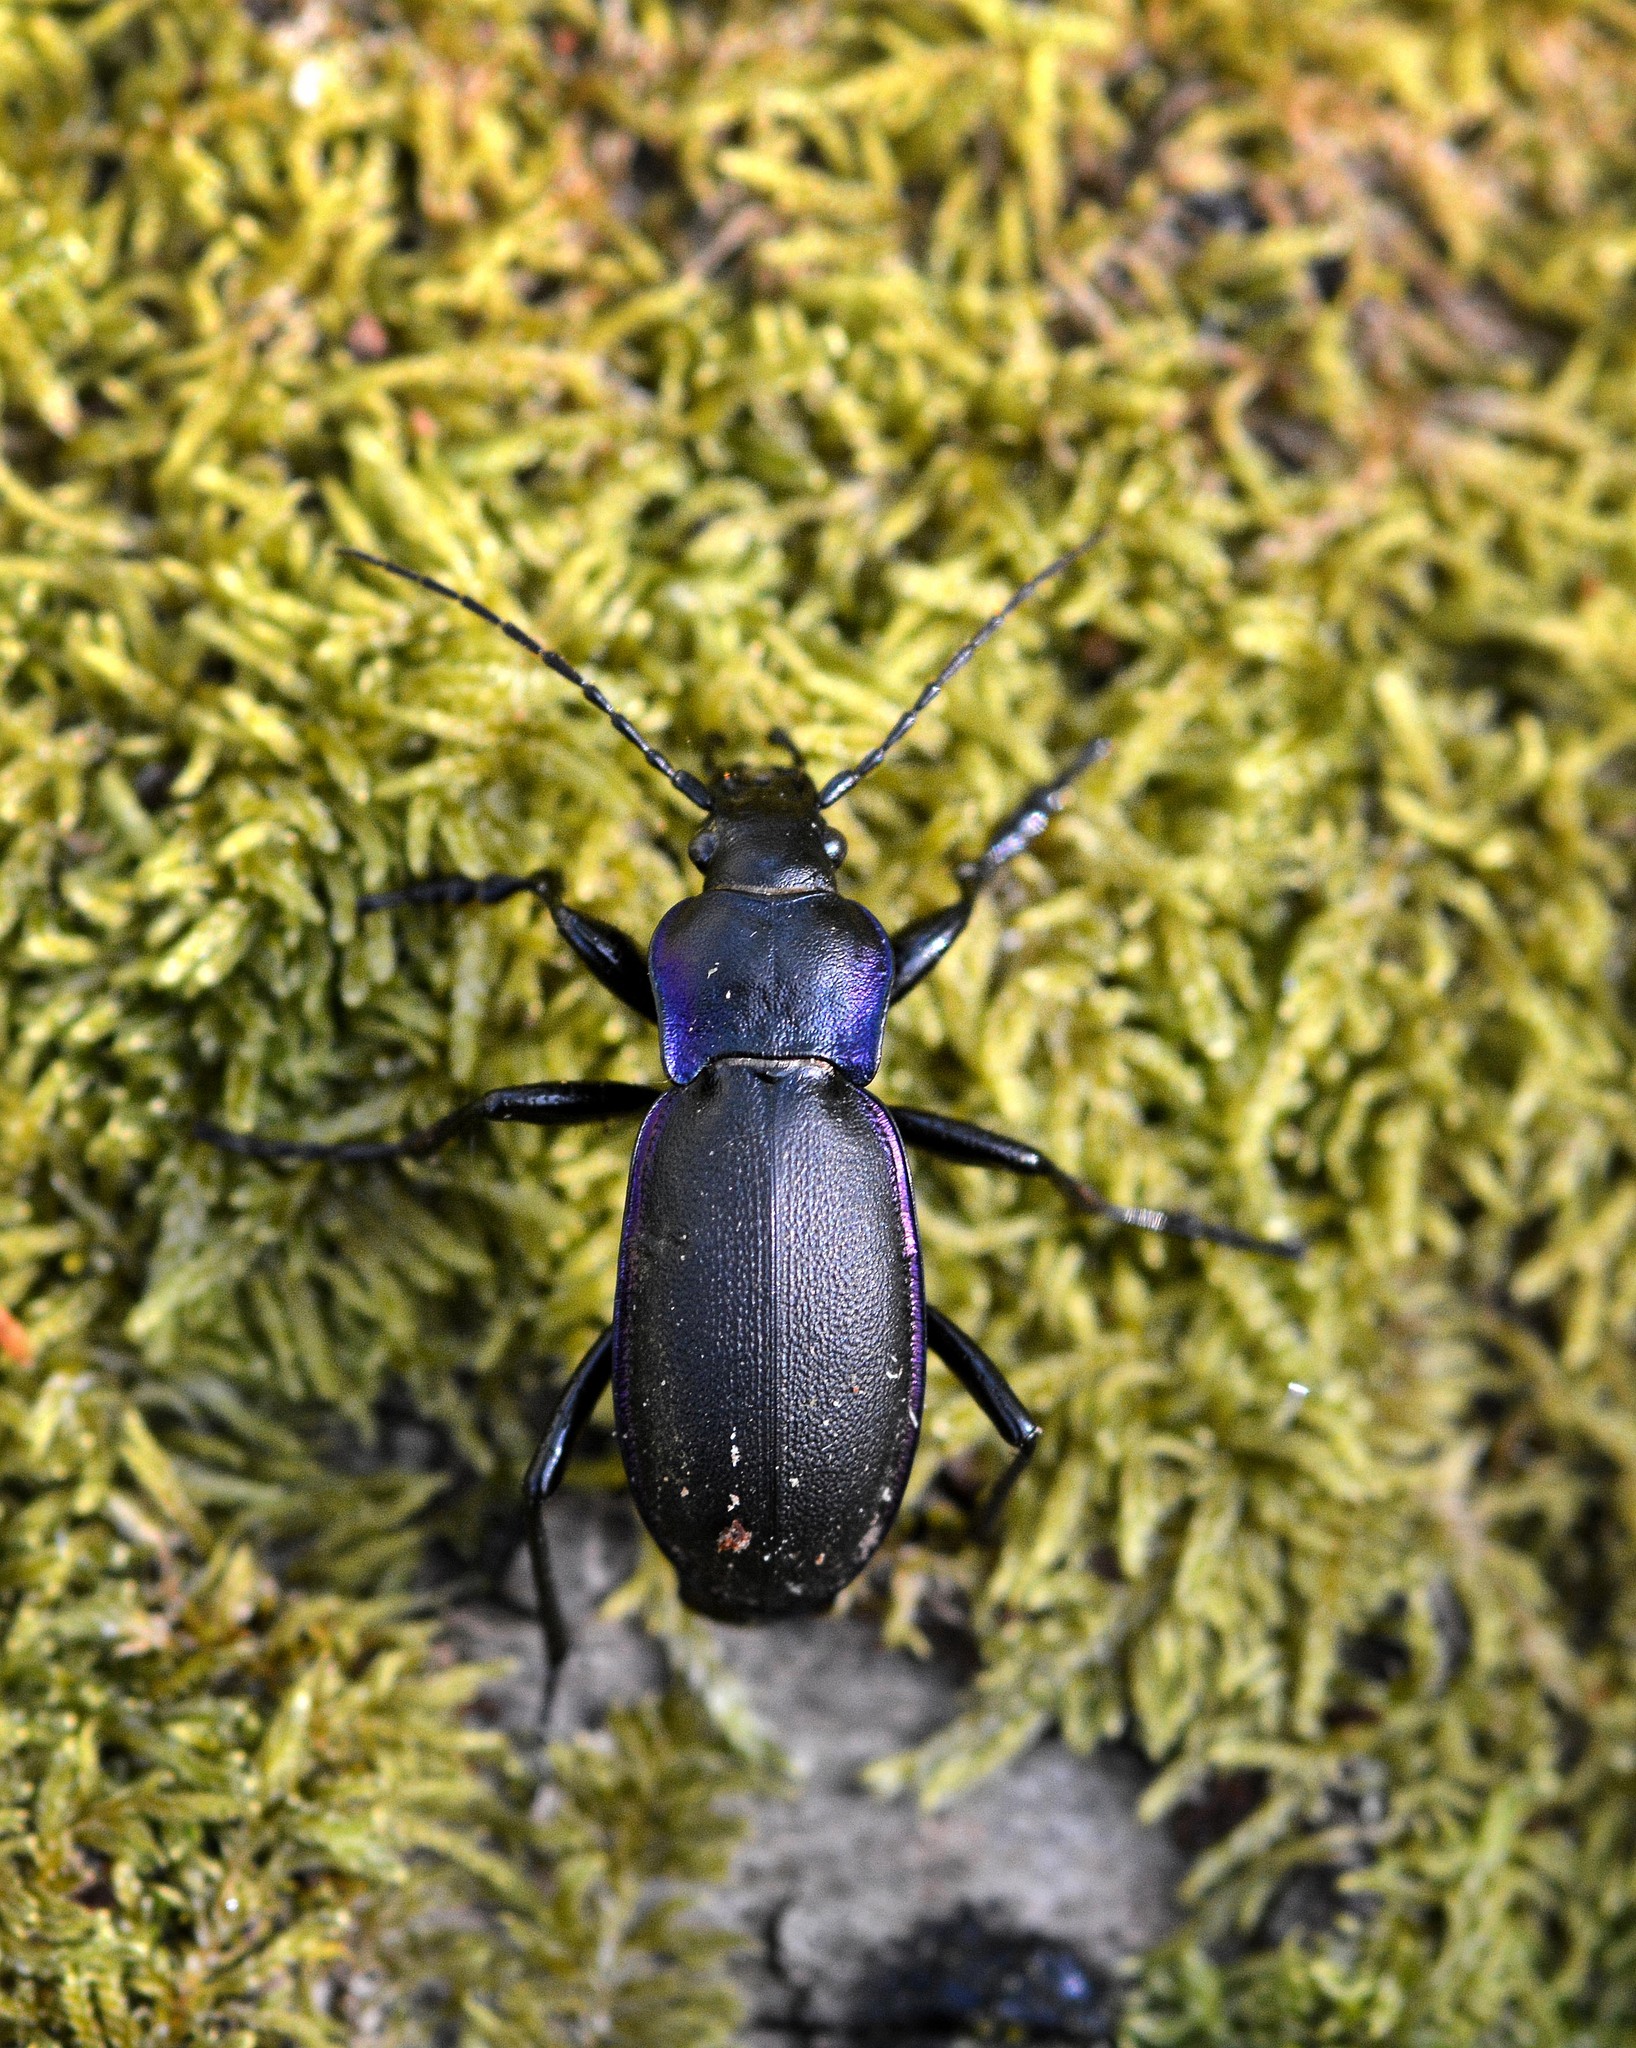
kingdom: Animalia
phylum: Arthropoda
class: Insecta
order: Coleoptera
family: Carabidae
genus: Carabus
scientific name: Carabus violaceus
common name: Violet ground beetle
